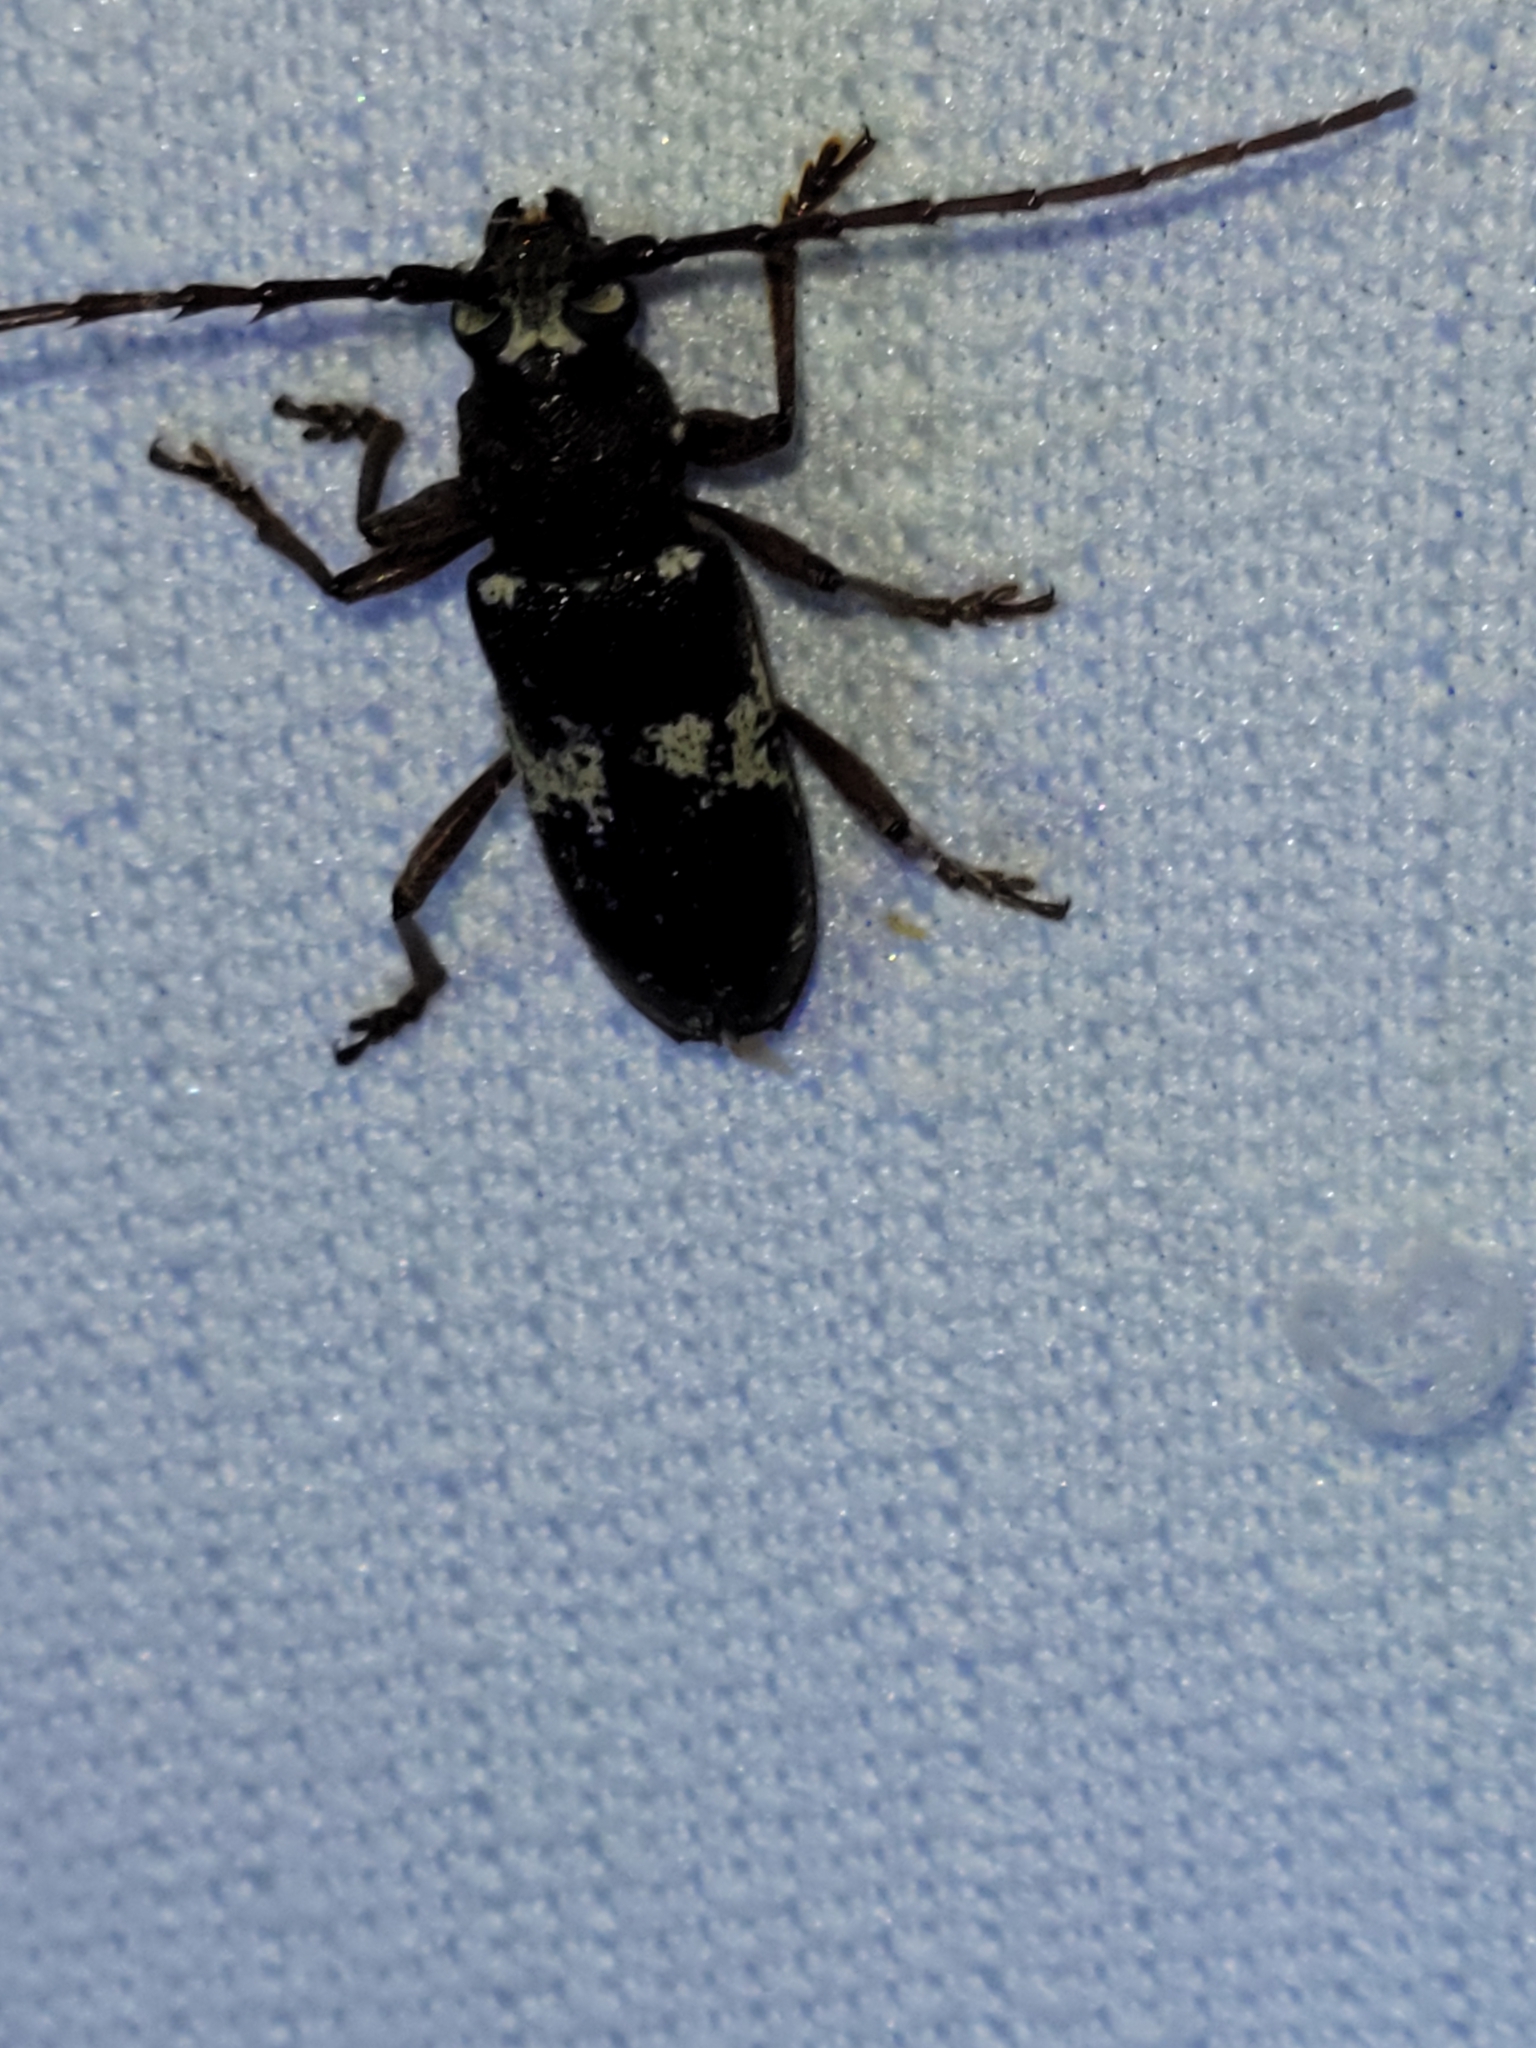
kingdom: Animalia
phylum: Arthropoda
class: Insecta
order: Coleoptera
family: Cerambycidae
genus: Enaphalodes
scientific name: Enaphalodes taeniatus
